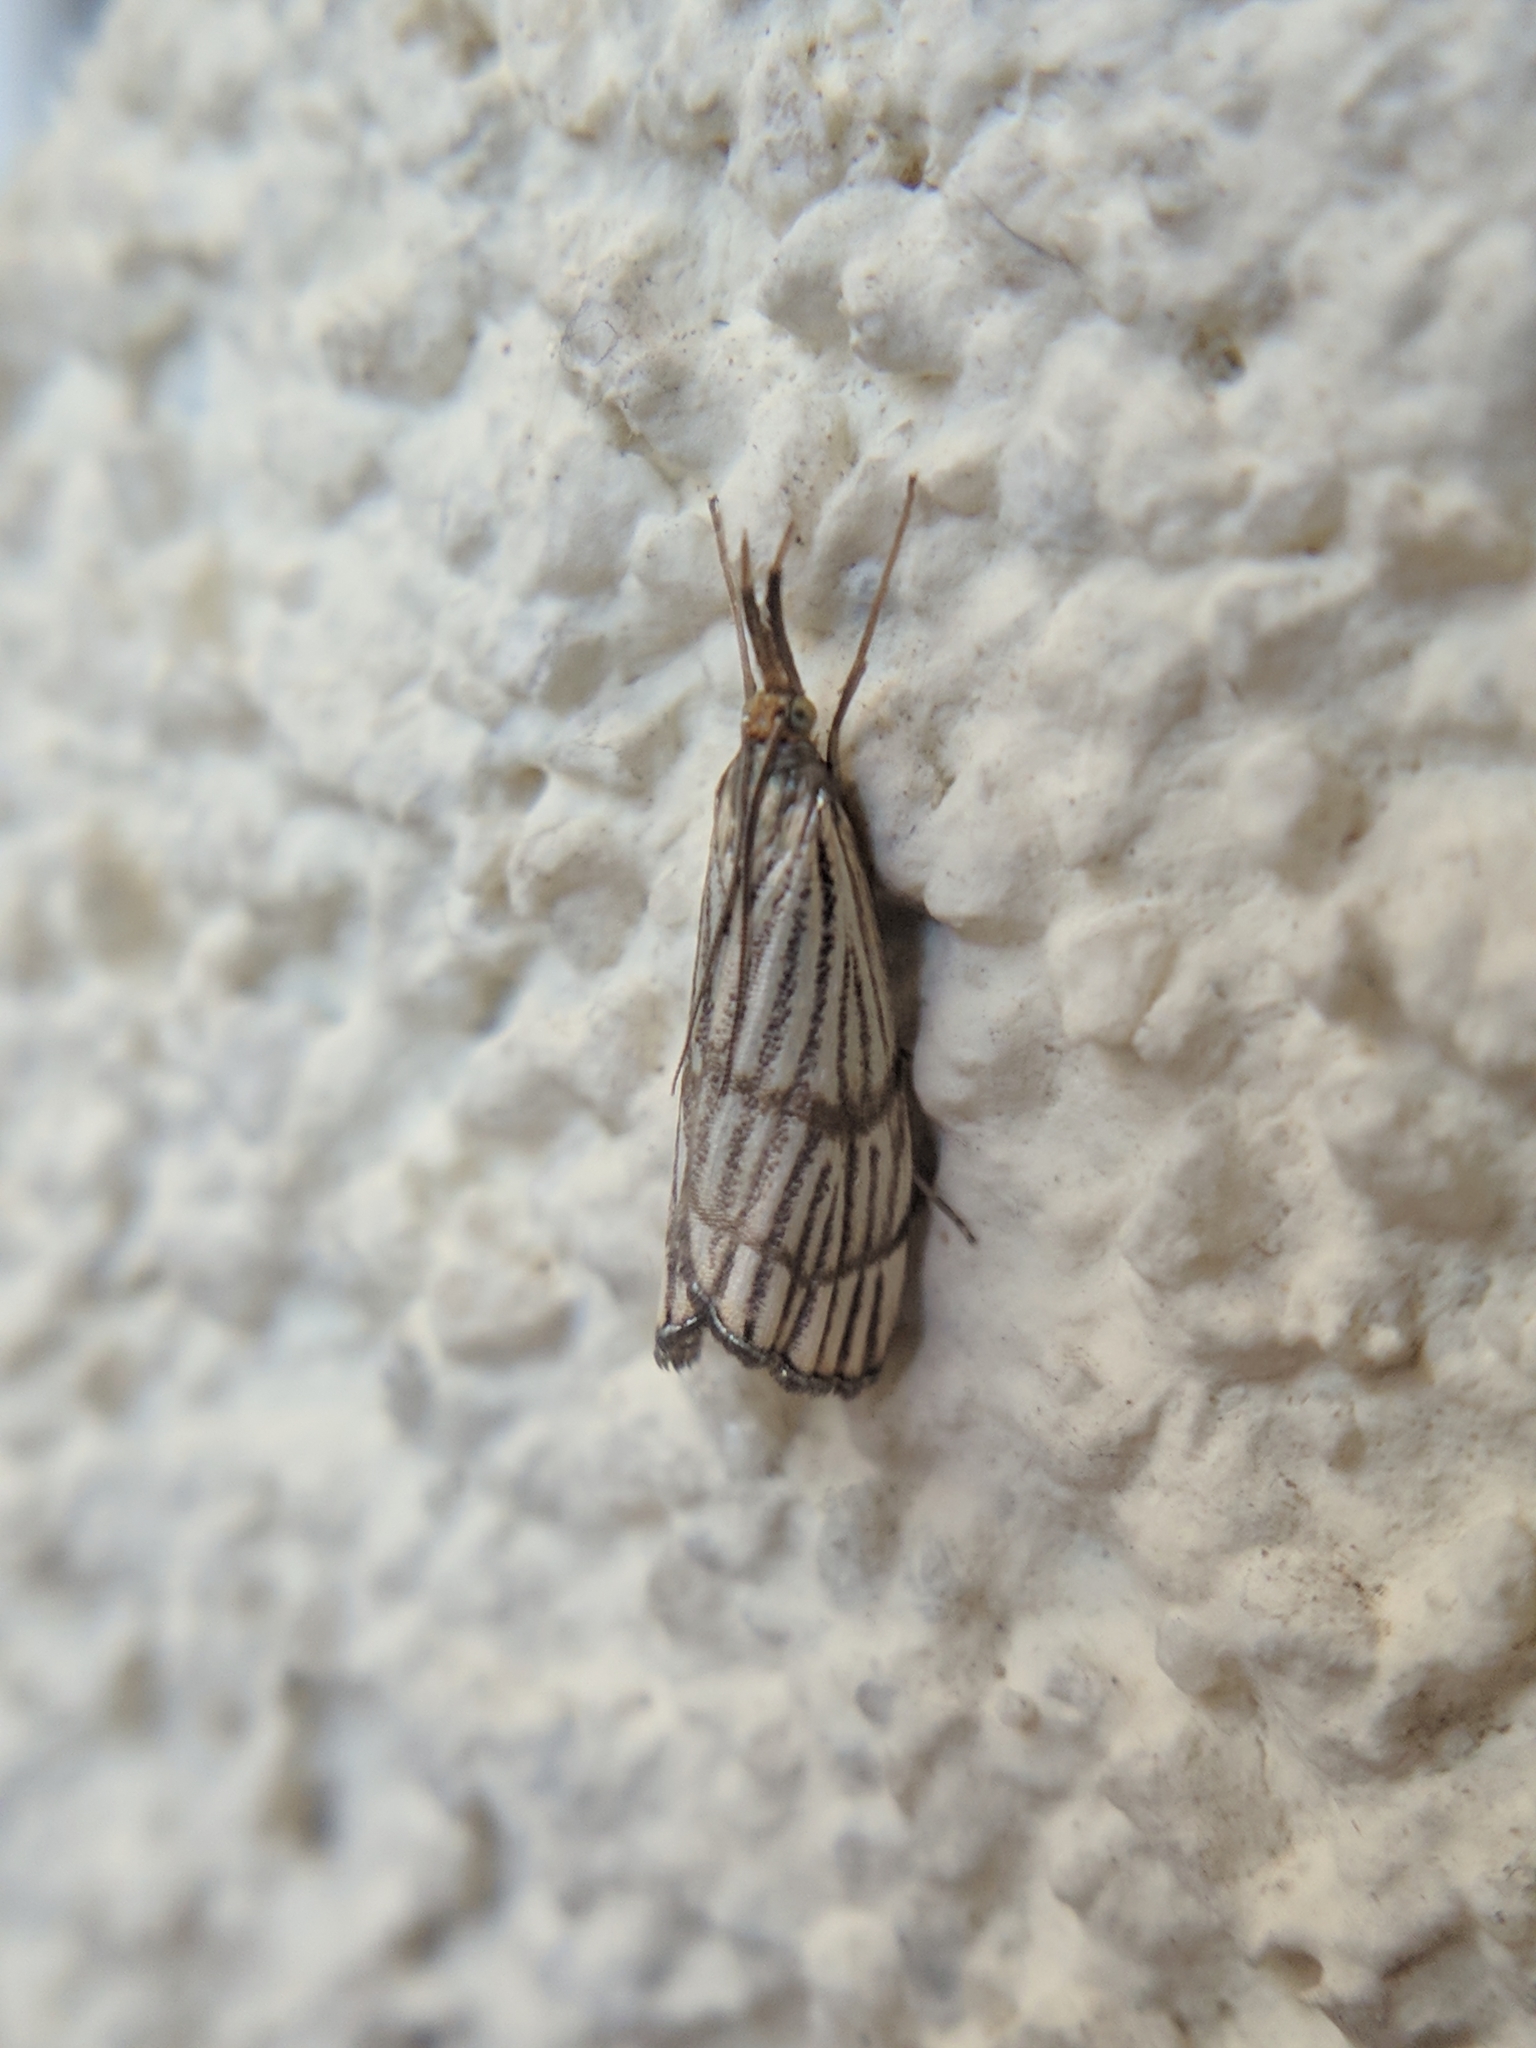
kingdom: Animalia
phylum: Arthropoda
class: Insecta
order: Lepidoptera
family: Crambidae
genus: Chrysocrambus
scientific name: Chrysocrambus linetella
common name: Orange-bar grass-veneer
